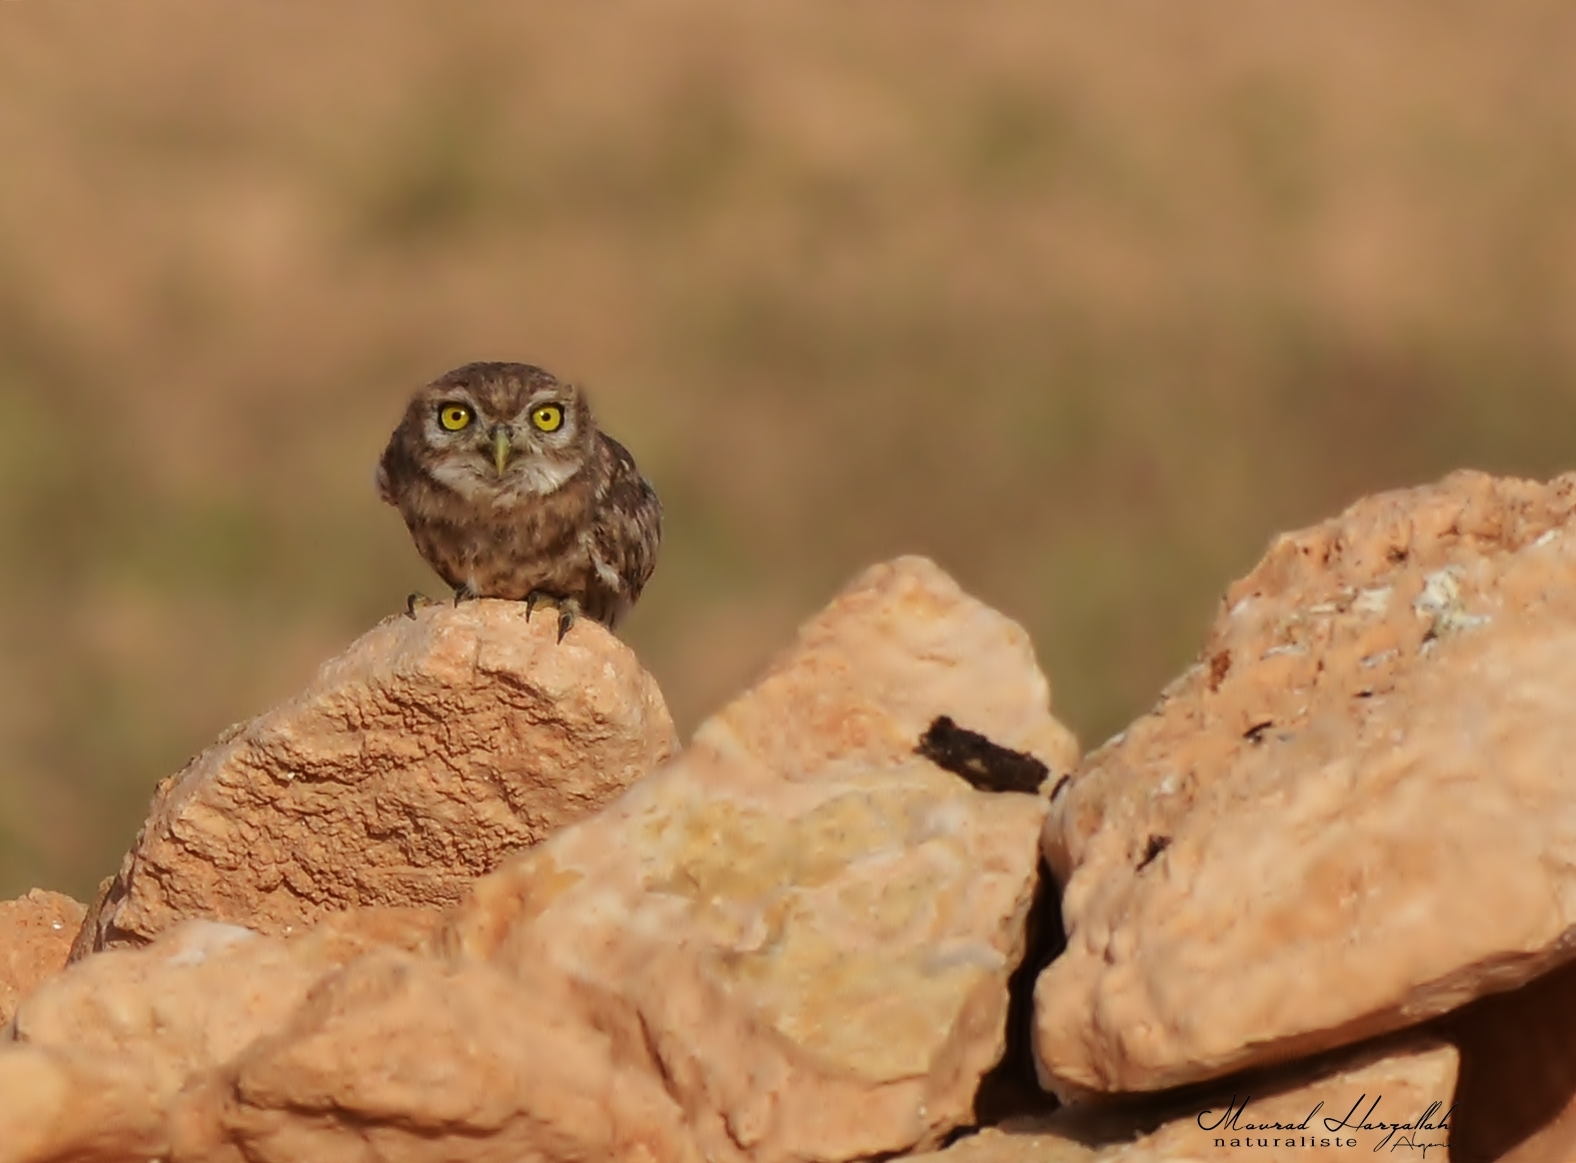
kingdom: Animalia
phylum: Chordata
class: Aves
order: Strigiformes
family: Strigidae
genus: Athene
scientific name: Athene noctua
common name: Little owl
